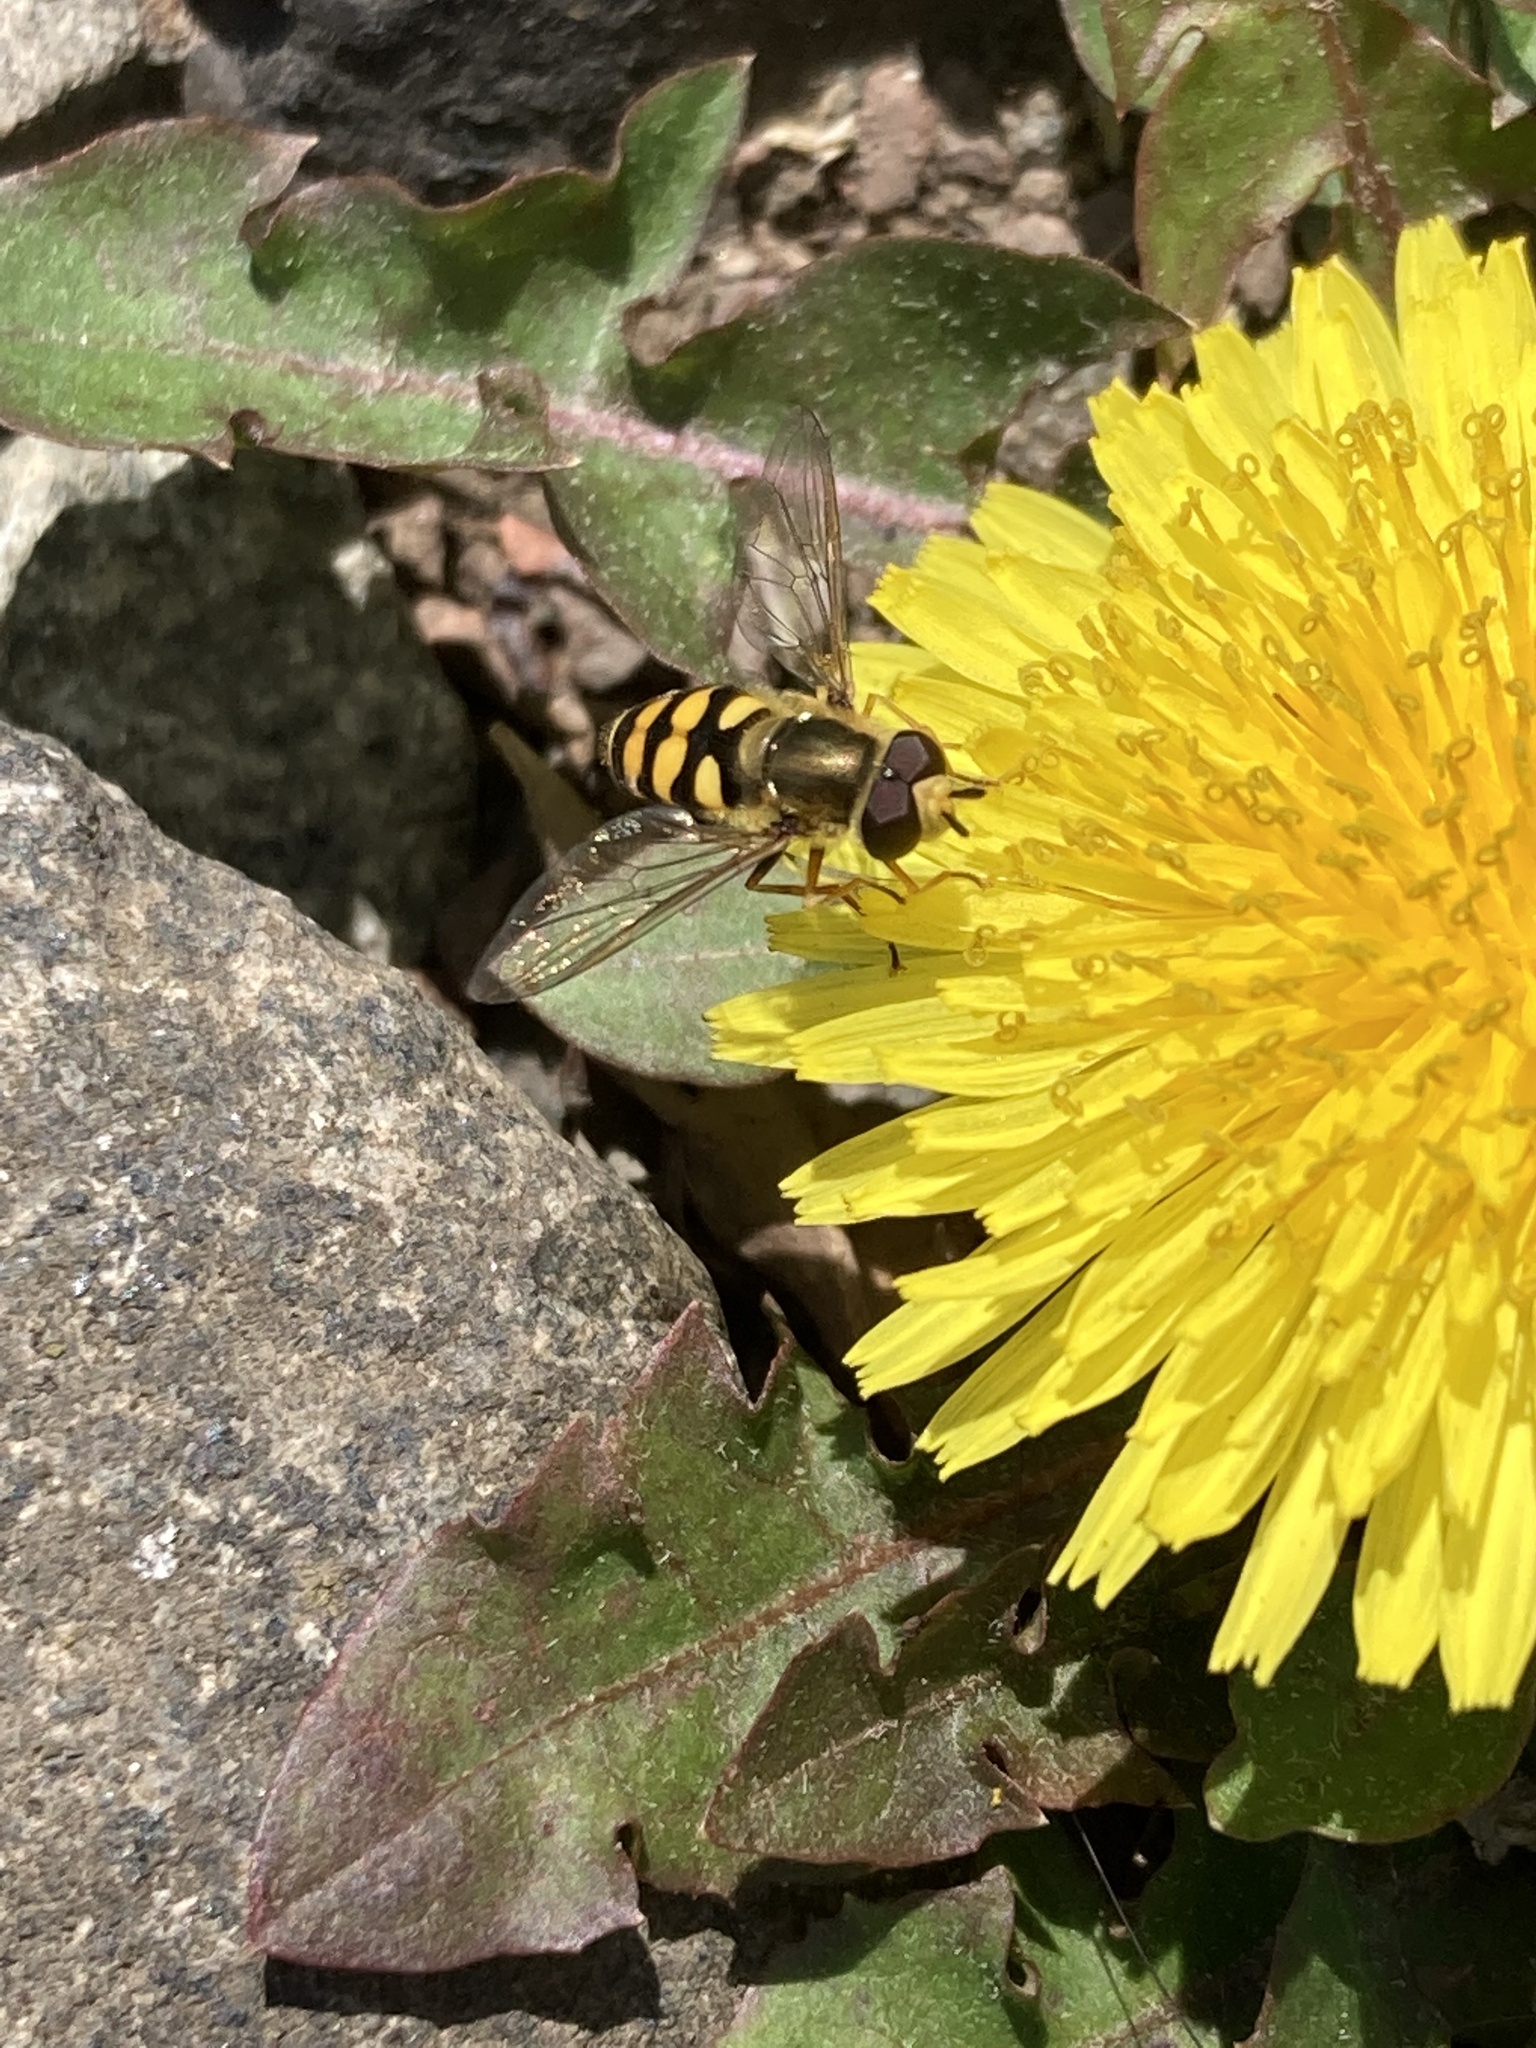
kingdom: Animalia
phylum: Arthropoda
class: Insecta
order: Diptera
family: Syrphidae
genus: Eupeodes
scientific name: Eupeodes
